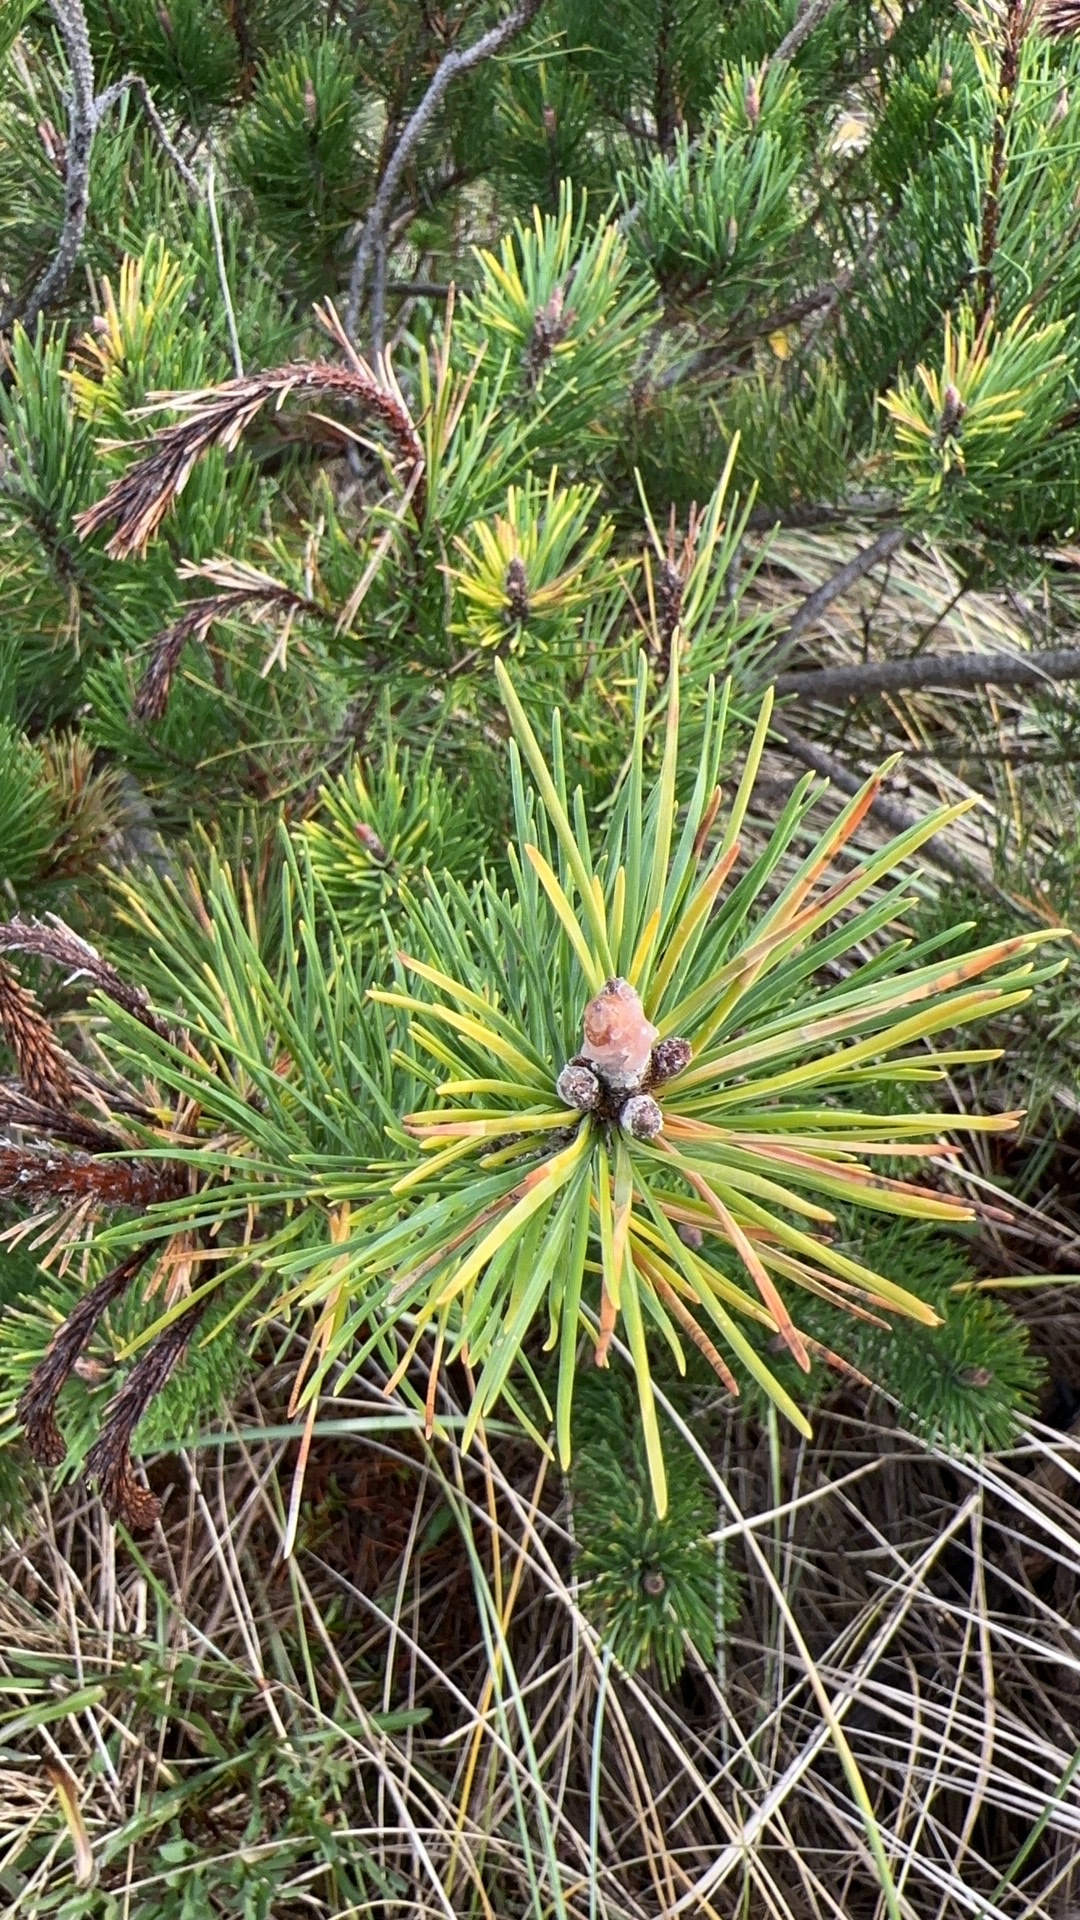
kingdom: Plantae
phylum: Tracheophyta
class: Pinopsida
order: Pinales
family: Pinaceae
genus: Pinus
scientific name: Pinus contorta
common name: Lodgepole pine
